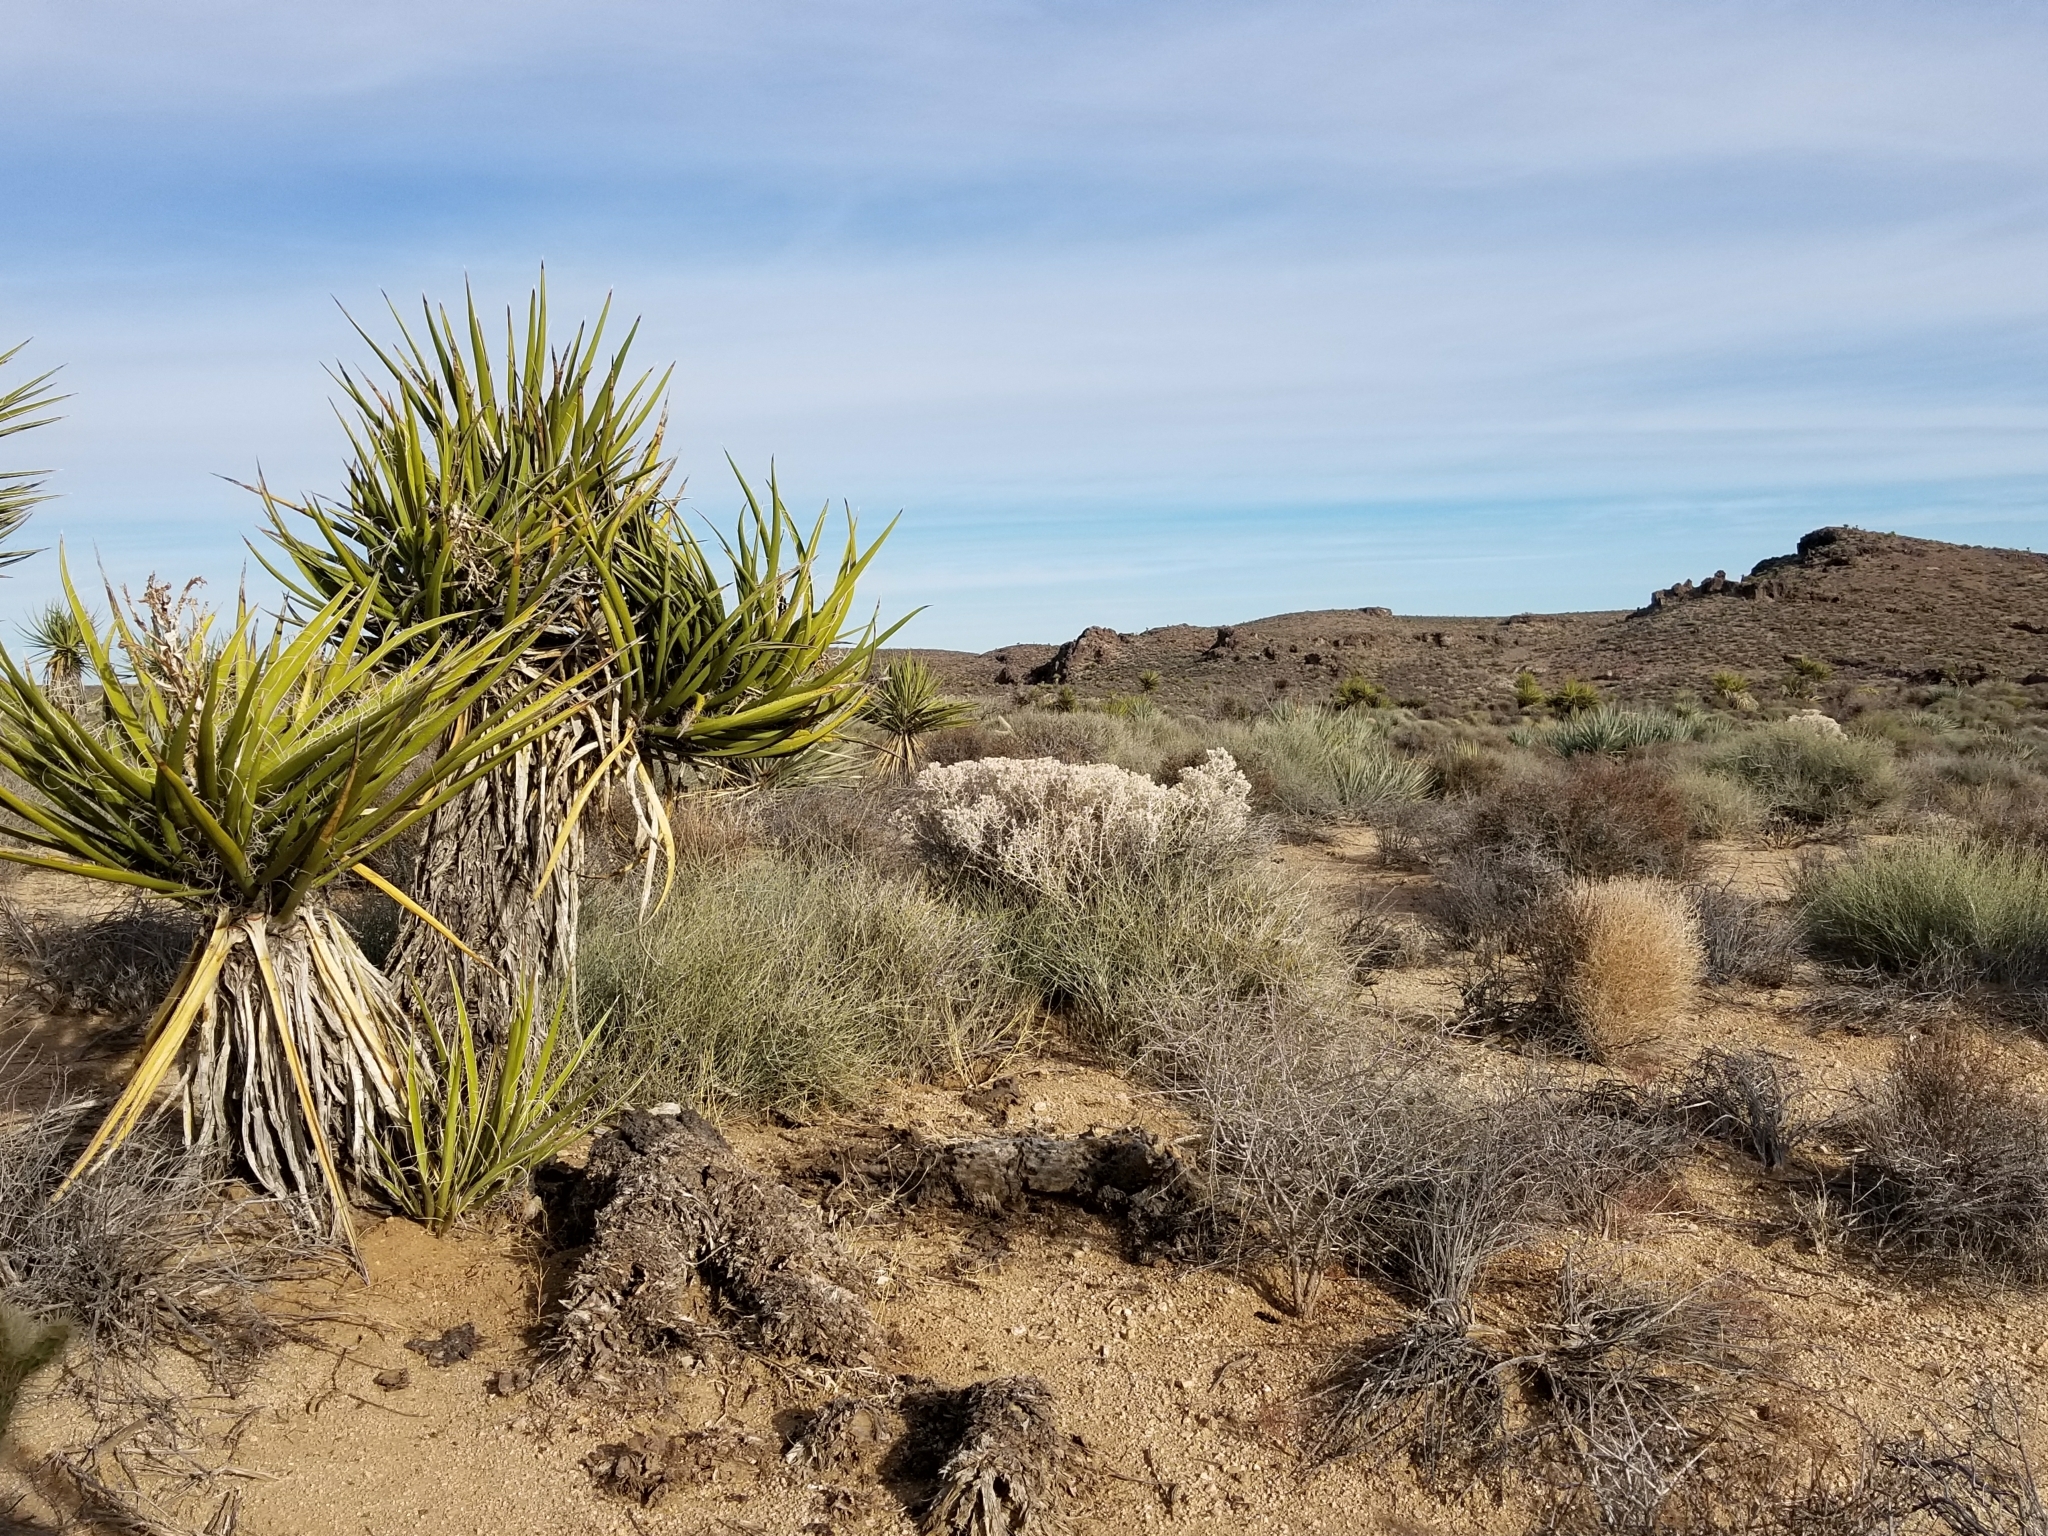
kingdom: Plantae
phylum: Tracheophyta
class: Liliopsida
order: Asparagales
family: Asparagaceae
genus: Yucca
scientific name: Yucca schidigera
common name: Mojave yucca
